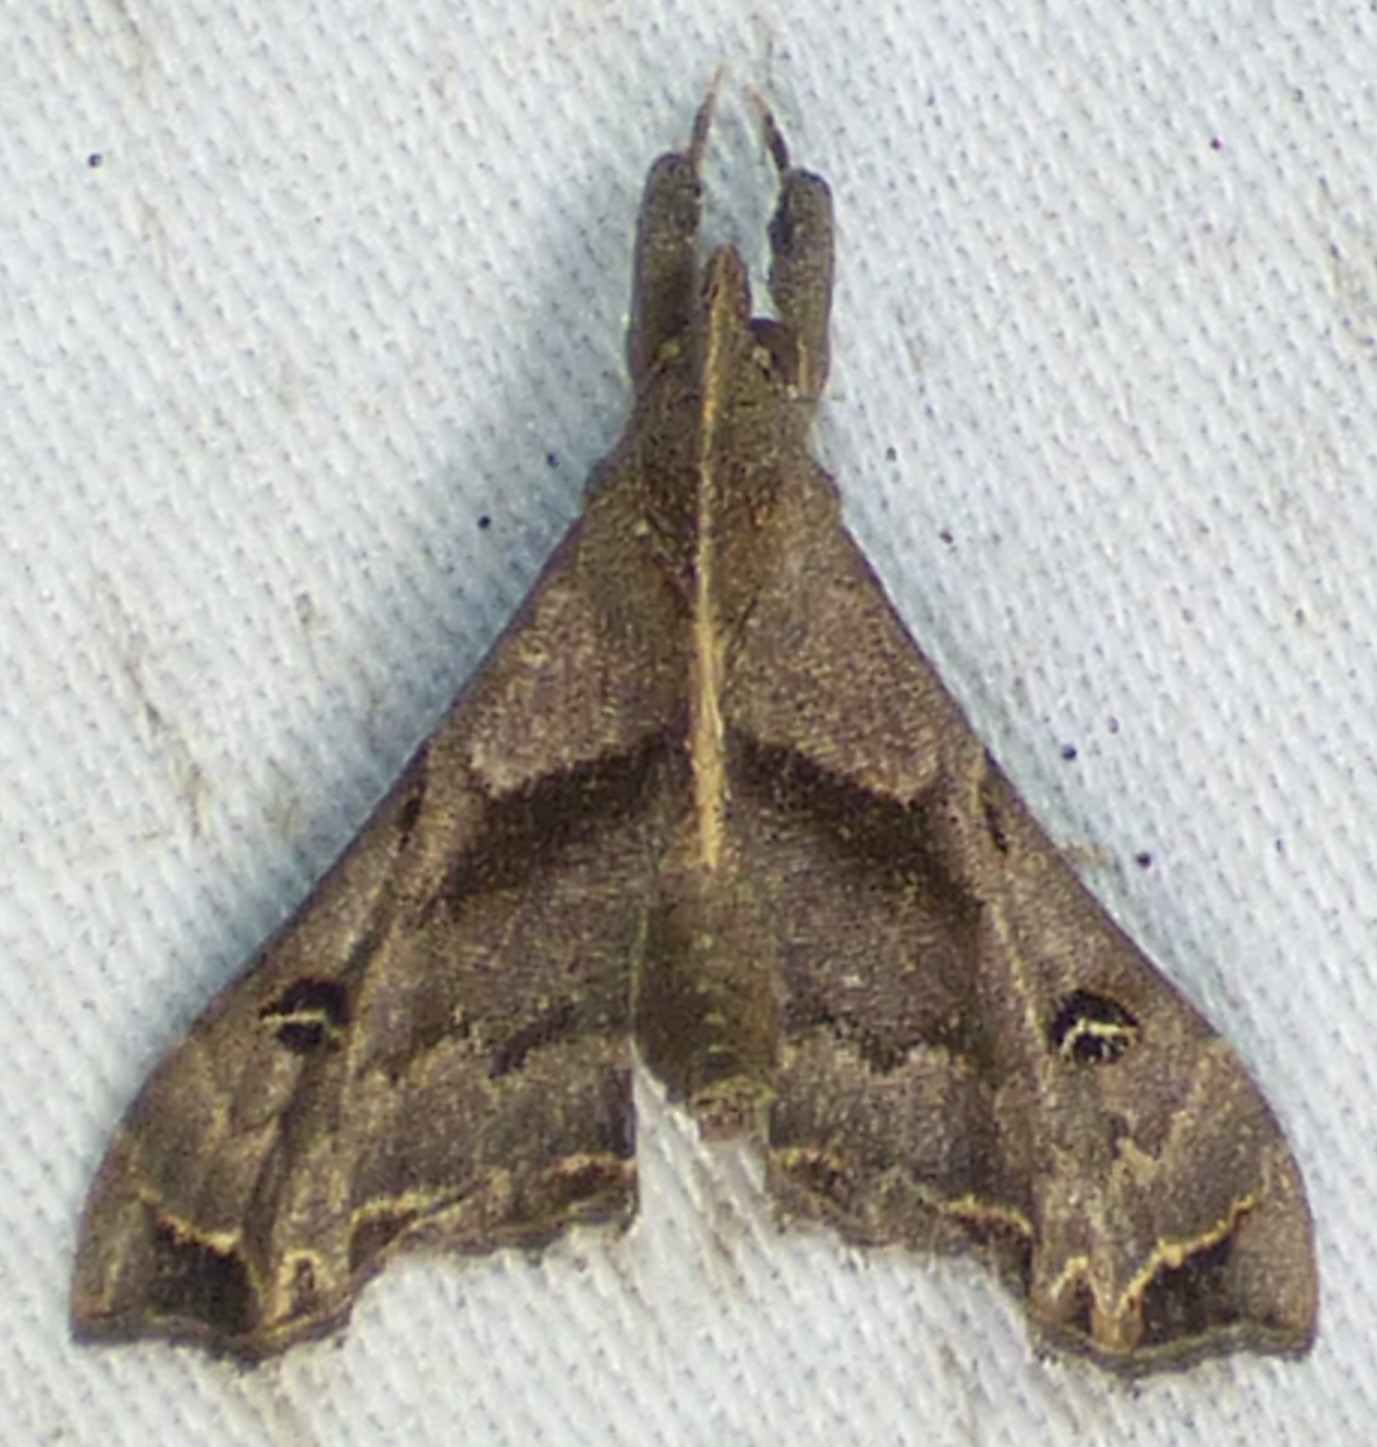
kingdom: Animalia
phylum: Arthropoda
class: Insecta
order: Lepidoptera
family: Erebidae
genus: Palthis
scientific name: Palthis asopialis
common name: Faint-spotted palthis moth
